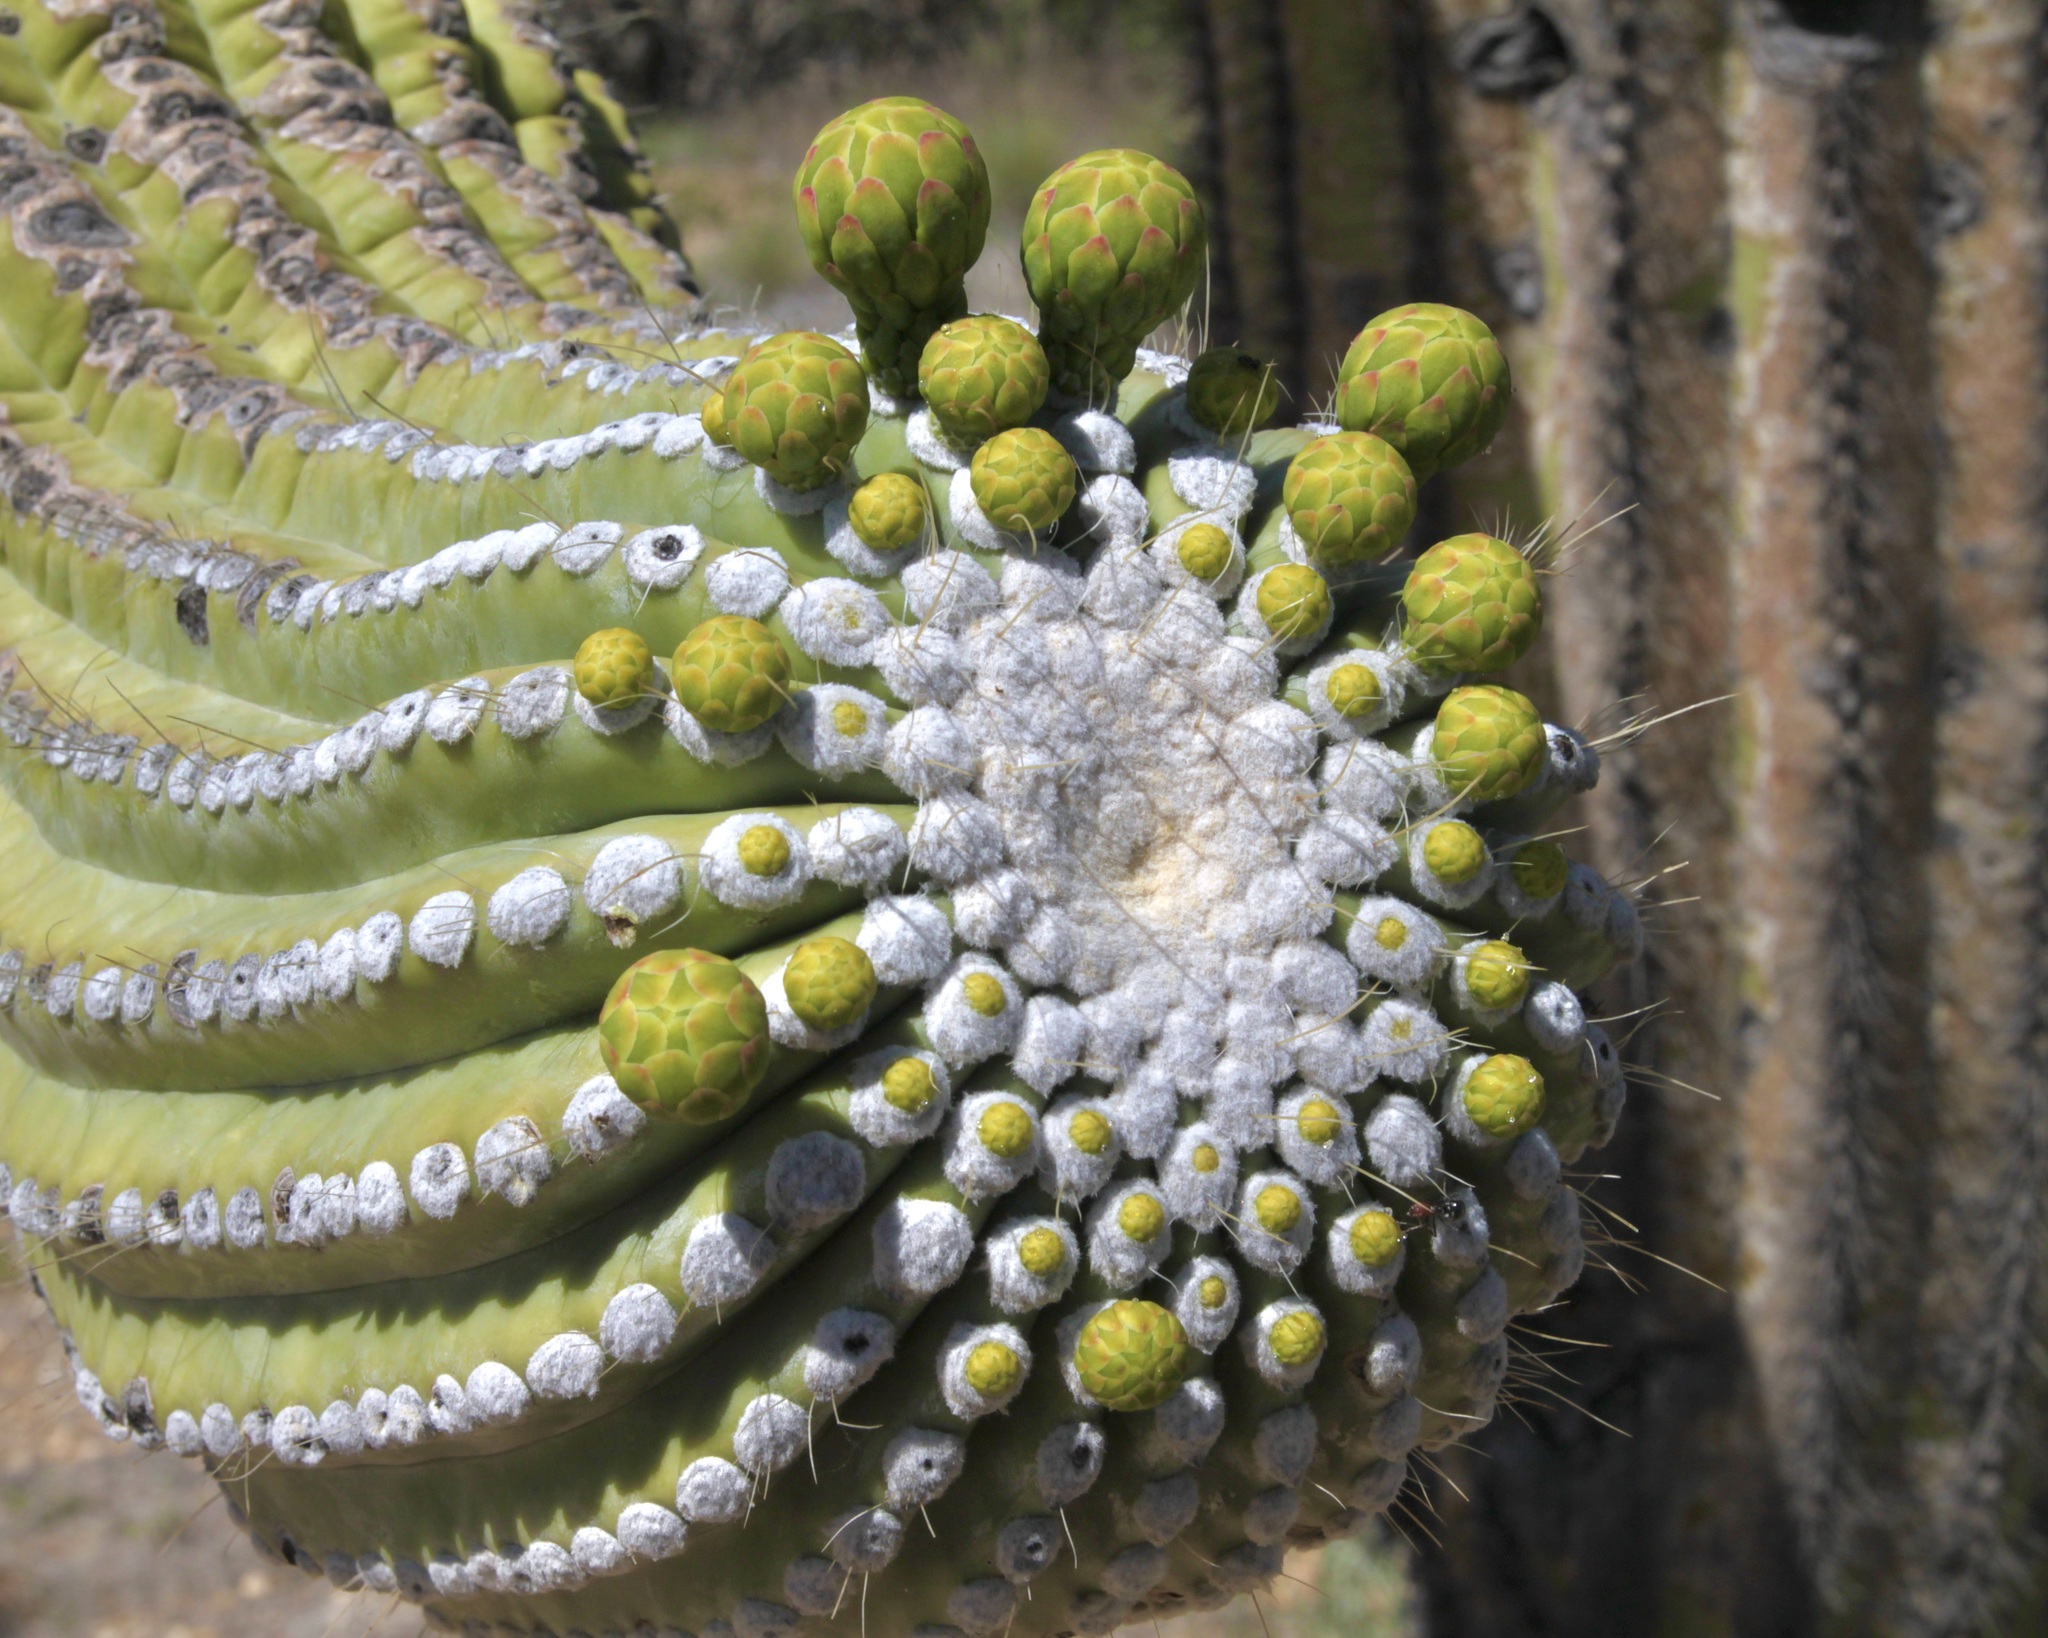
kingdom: Plantae
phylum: Tracheophyta
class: Magnoliopsida
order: Caryophyllales
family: Cactaceae
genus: Carnegiea
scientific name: Carnegiea gigantea
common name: Saguaro
